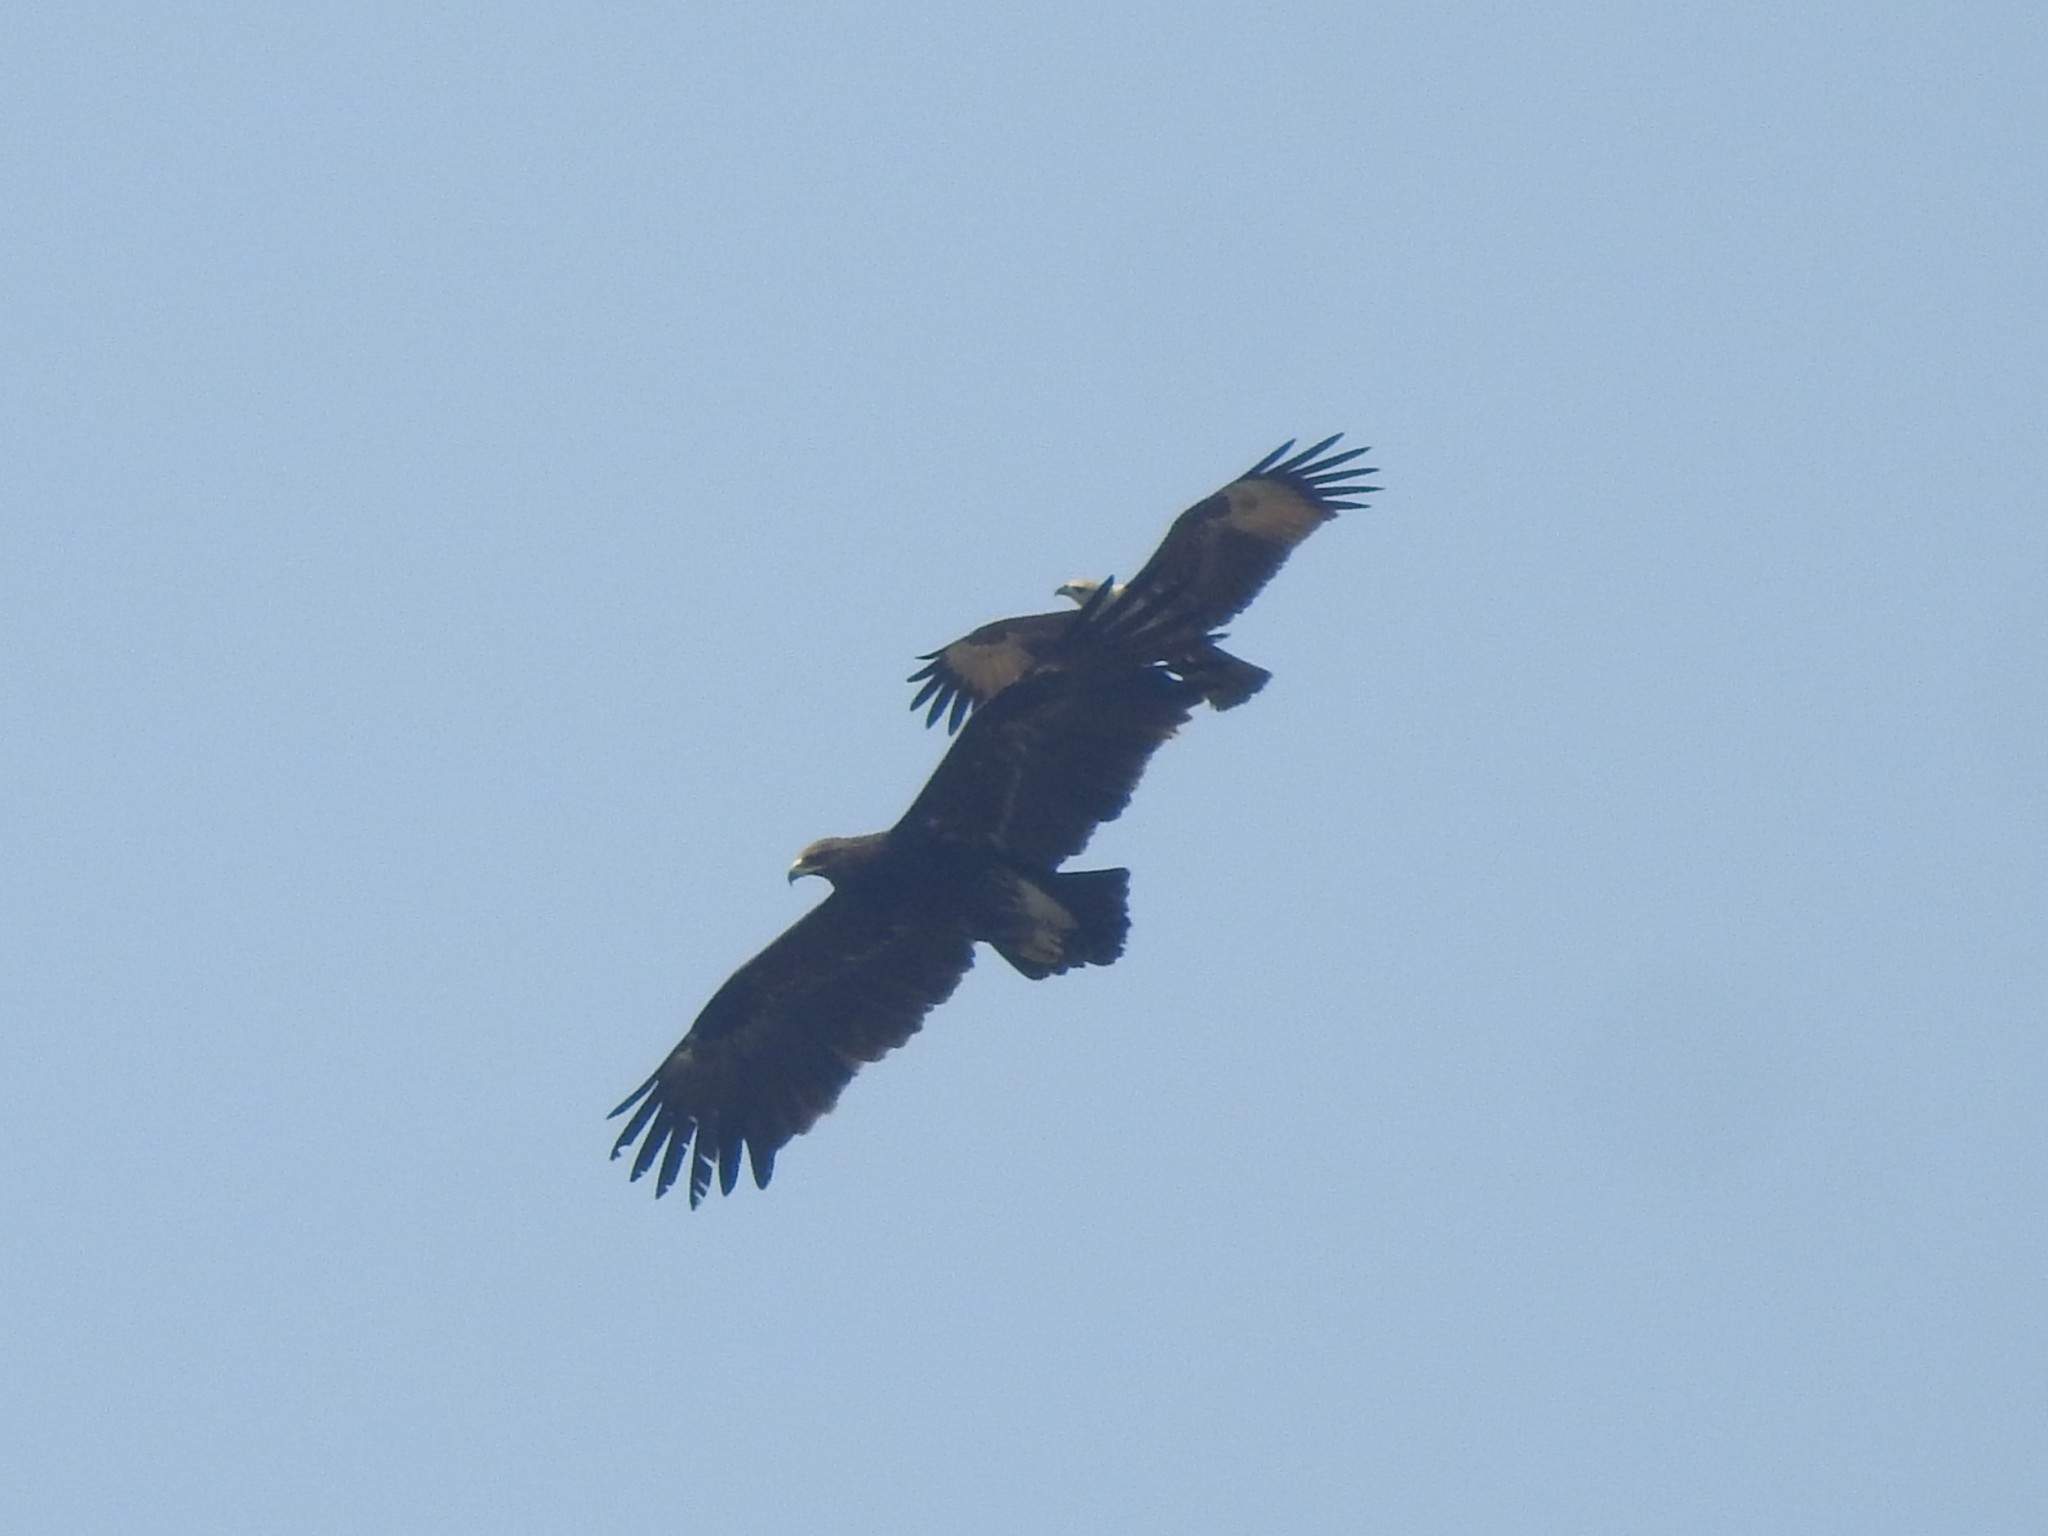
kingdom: Animalia
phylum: Chordata
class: Aves
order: Accipitriformes
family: Accipitridae
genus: Aquila
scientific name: Aquila clanga
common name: Greater spotted eagle
